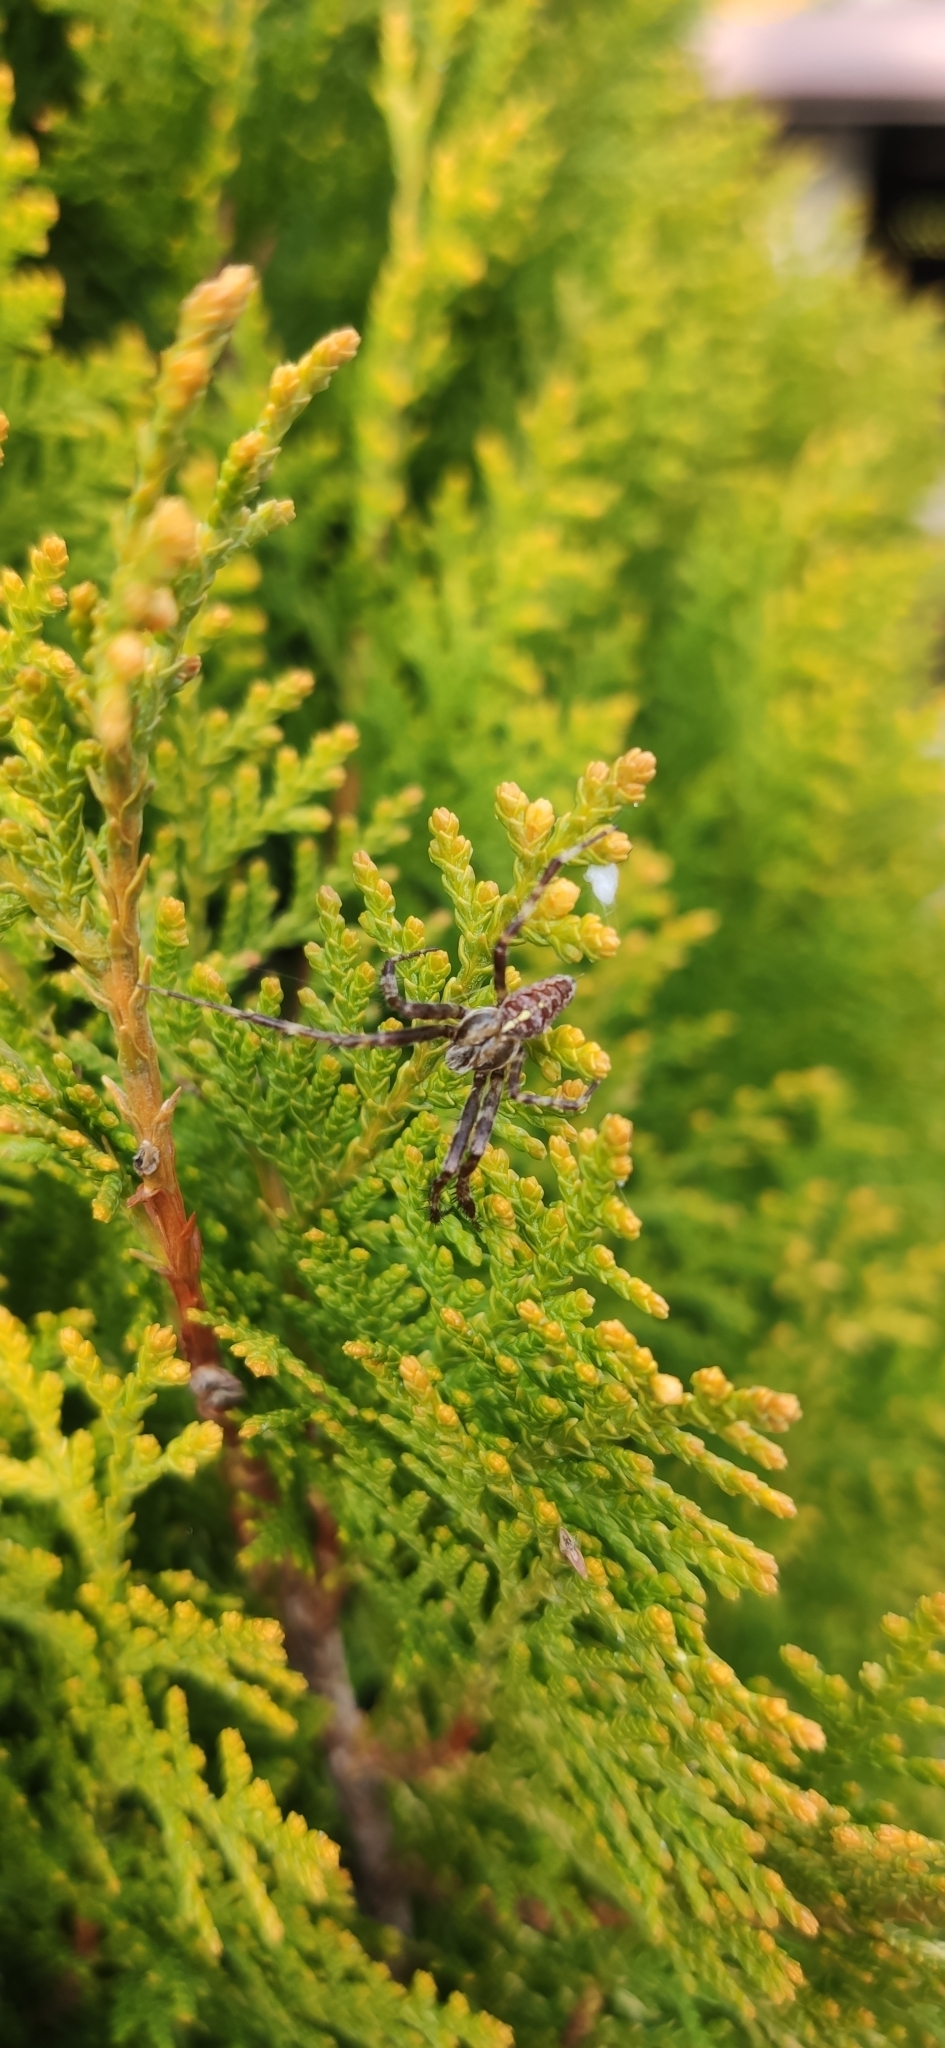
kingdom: Animalia
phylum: Arthropoda
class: Arachnida
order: Araneae
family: Araneidae
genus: Araneus
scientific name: Araneus diadematus
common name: Cross orbweaver
